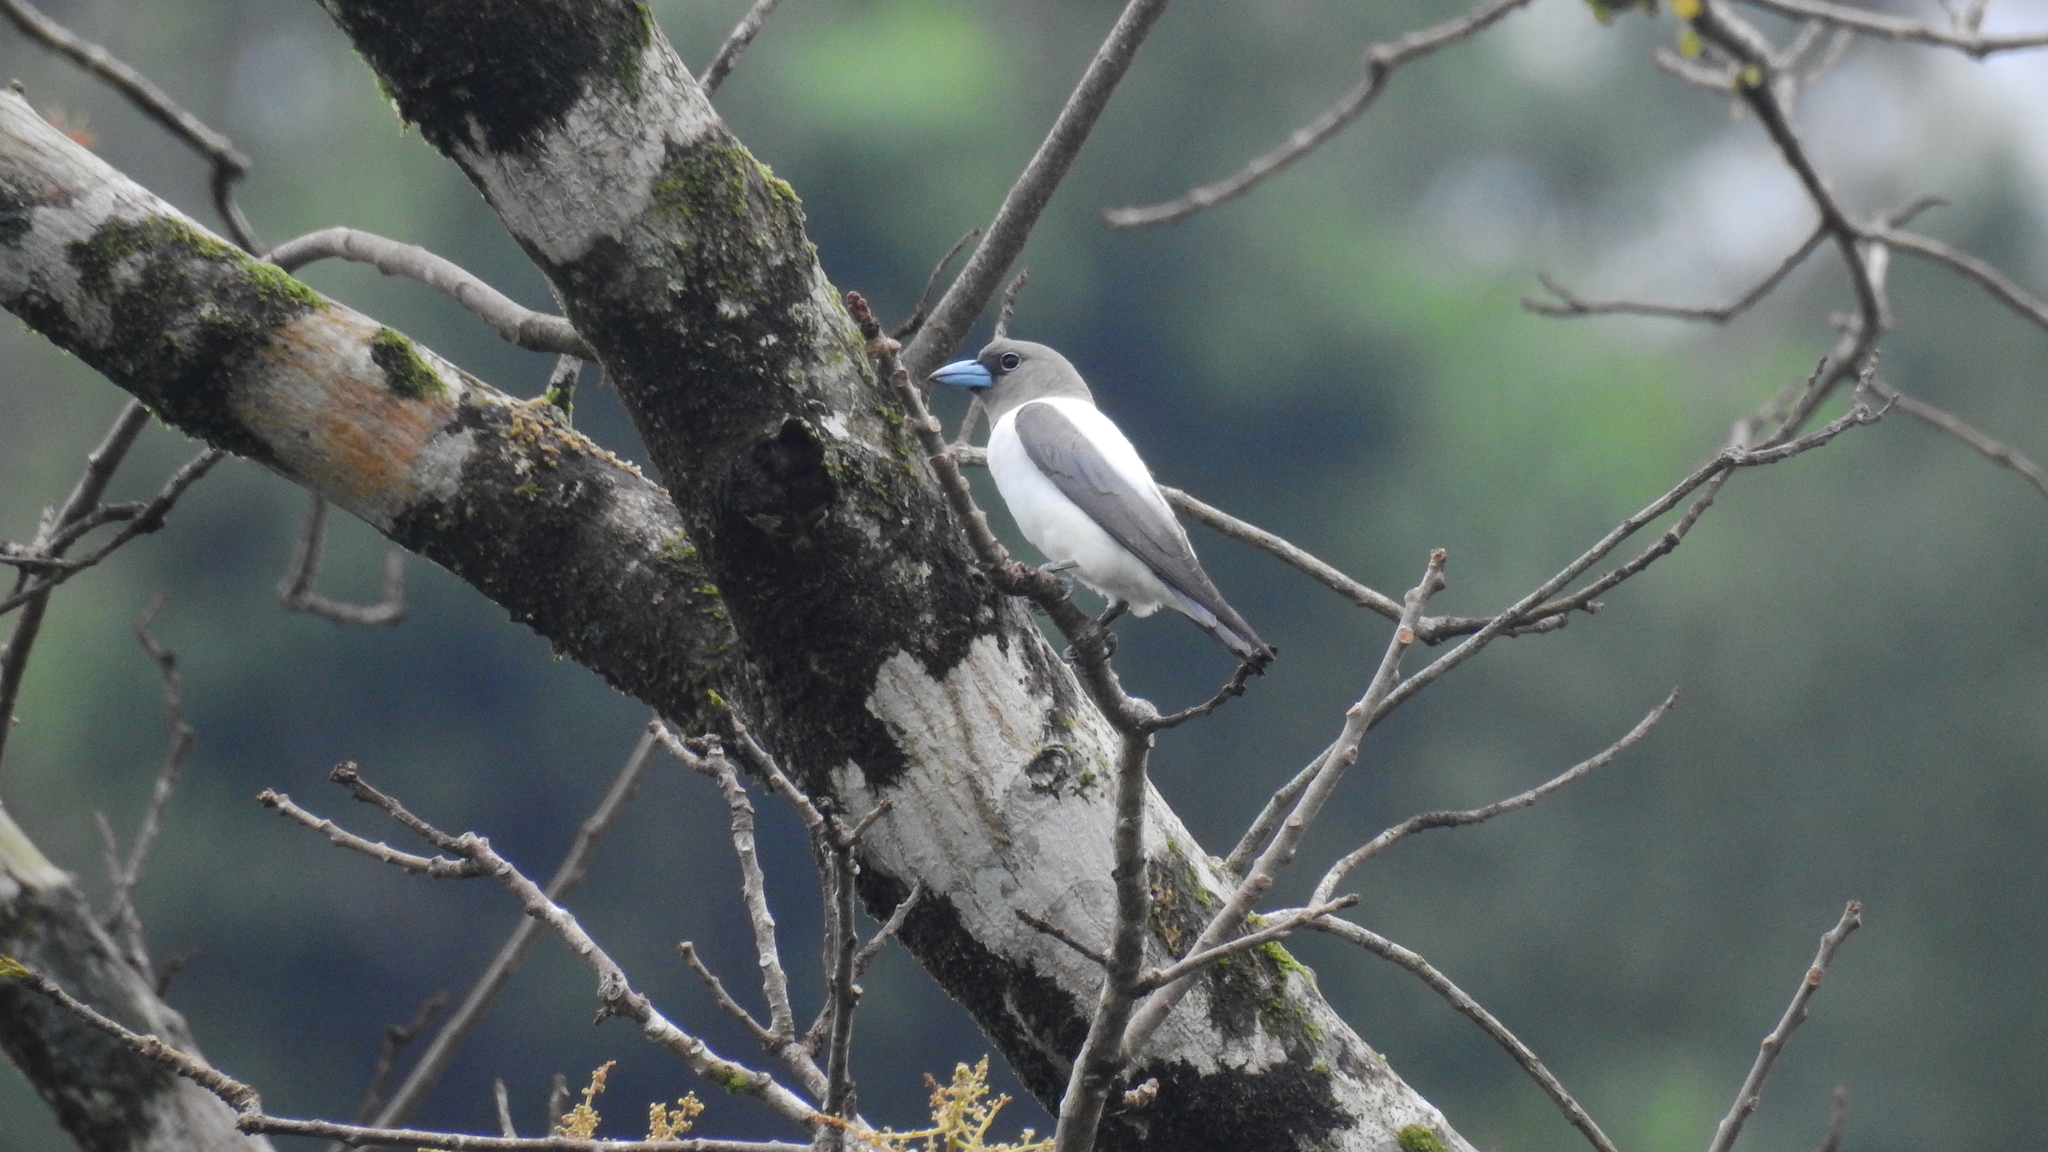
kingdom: Animalia
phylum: Chordata
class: Aves
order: Passeriformes
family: Artamidae
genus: Artamus
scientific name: Artamus monachus
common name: Ivory-backed woodswallow
